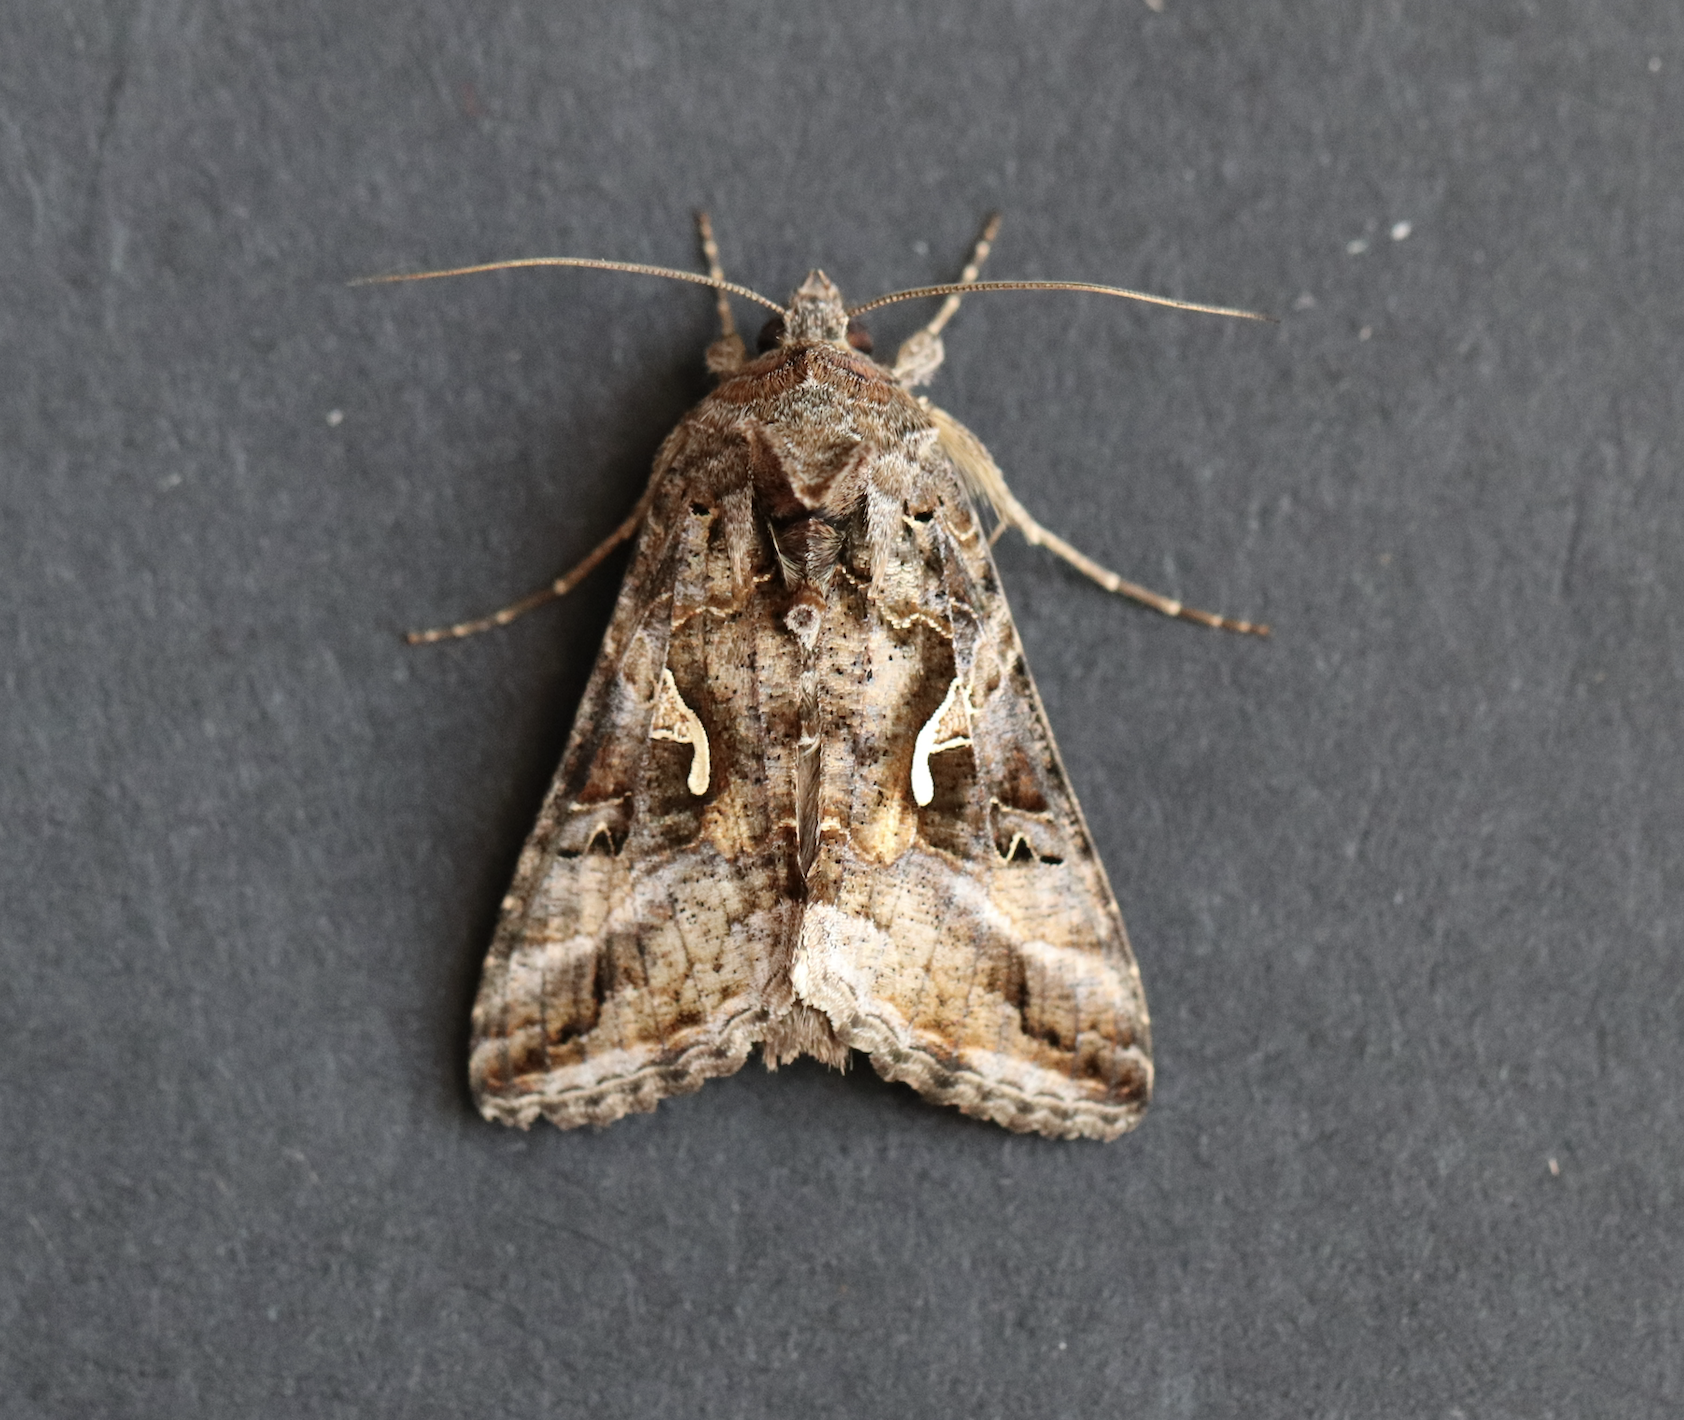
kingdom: Animalia
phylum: Arthropoda
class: Insecta
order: Lepidoptera
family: Noctuidae
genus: Autographa
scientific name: Autographa gamma
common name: Silver y
